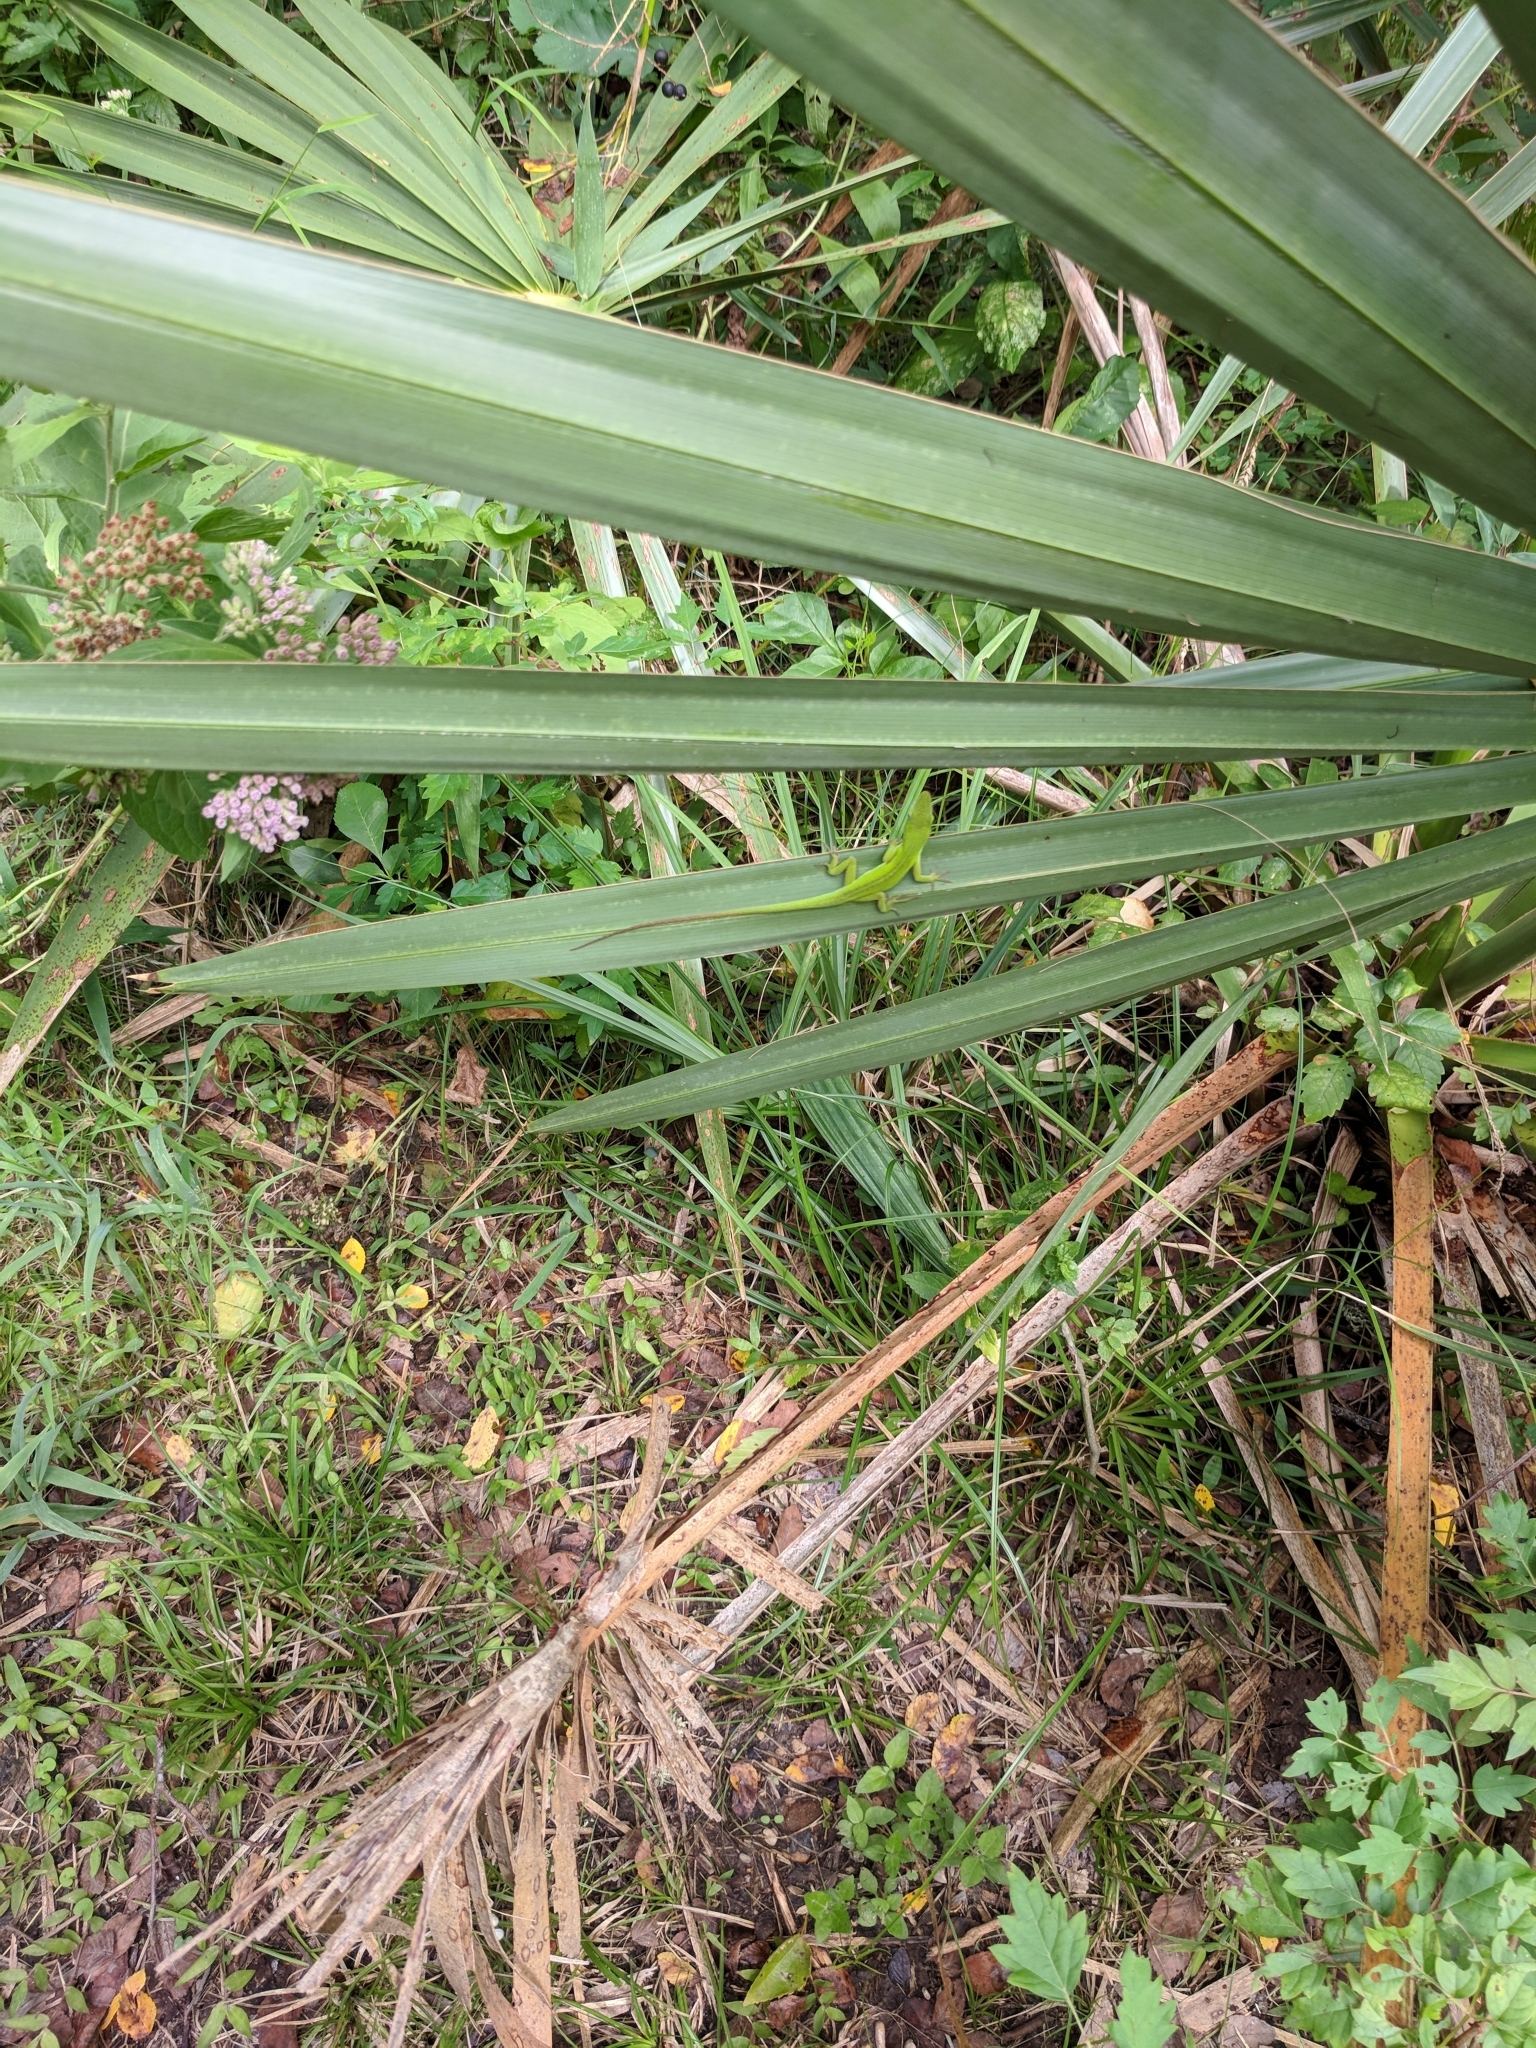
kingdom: Animalia
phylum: Chordata
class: Squamata
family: Dactyloidae
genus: Anolis
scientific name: Anolis carolinensis
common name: Green anole
